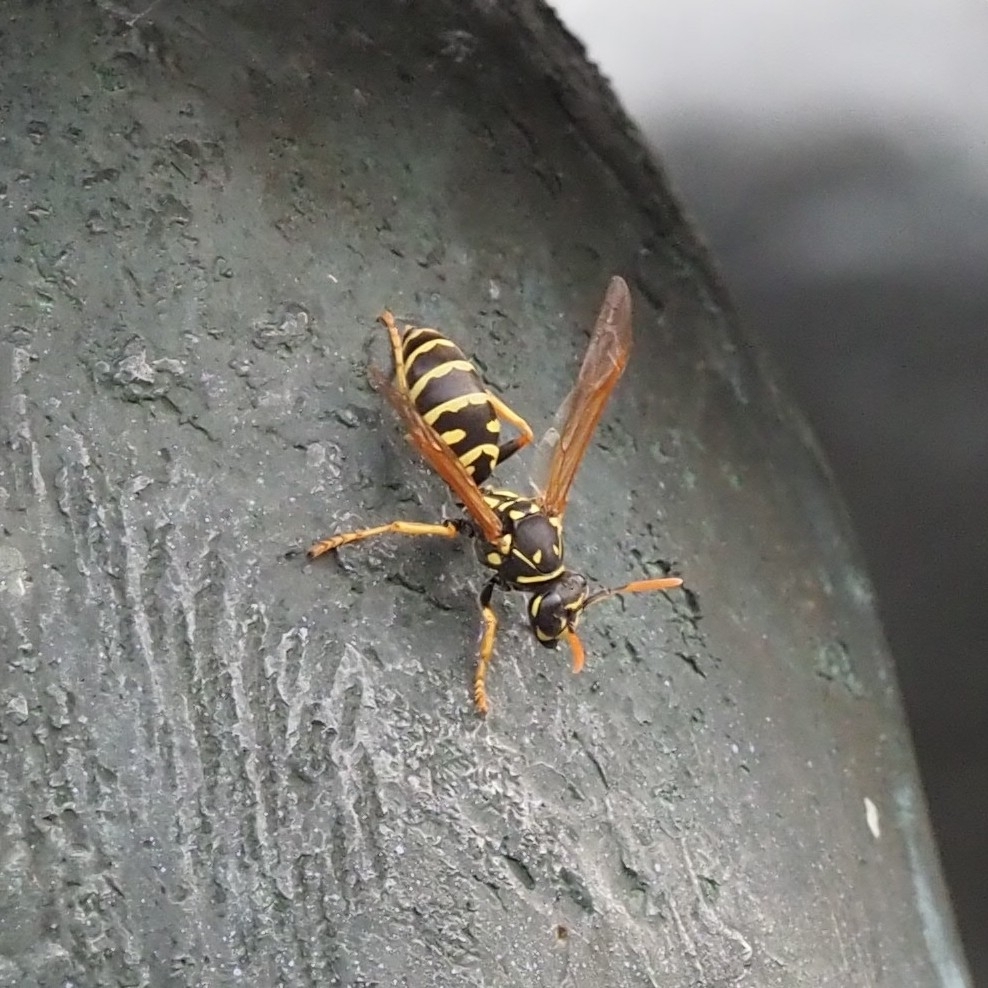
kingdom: Animalia
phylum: Arthropoda
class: Insecta
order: Hymenoptera
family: Eumenidae
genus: Polistes
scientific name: Polistes dominula
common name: Paper wasp
